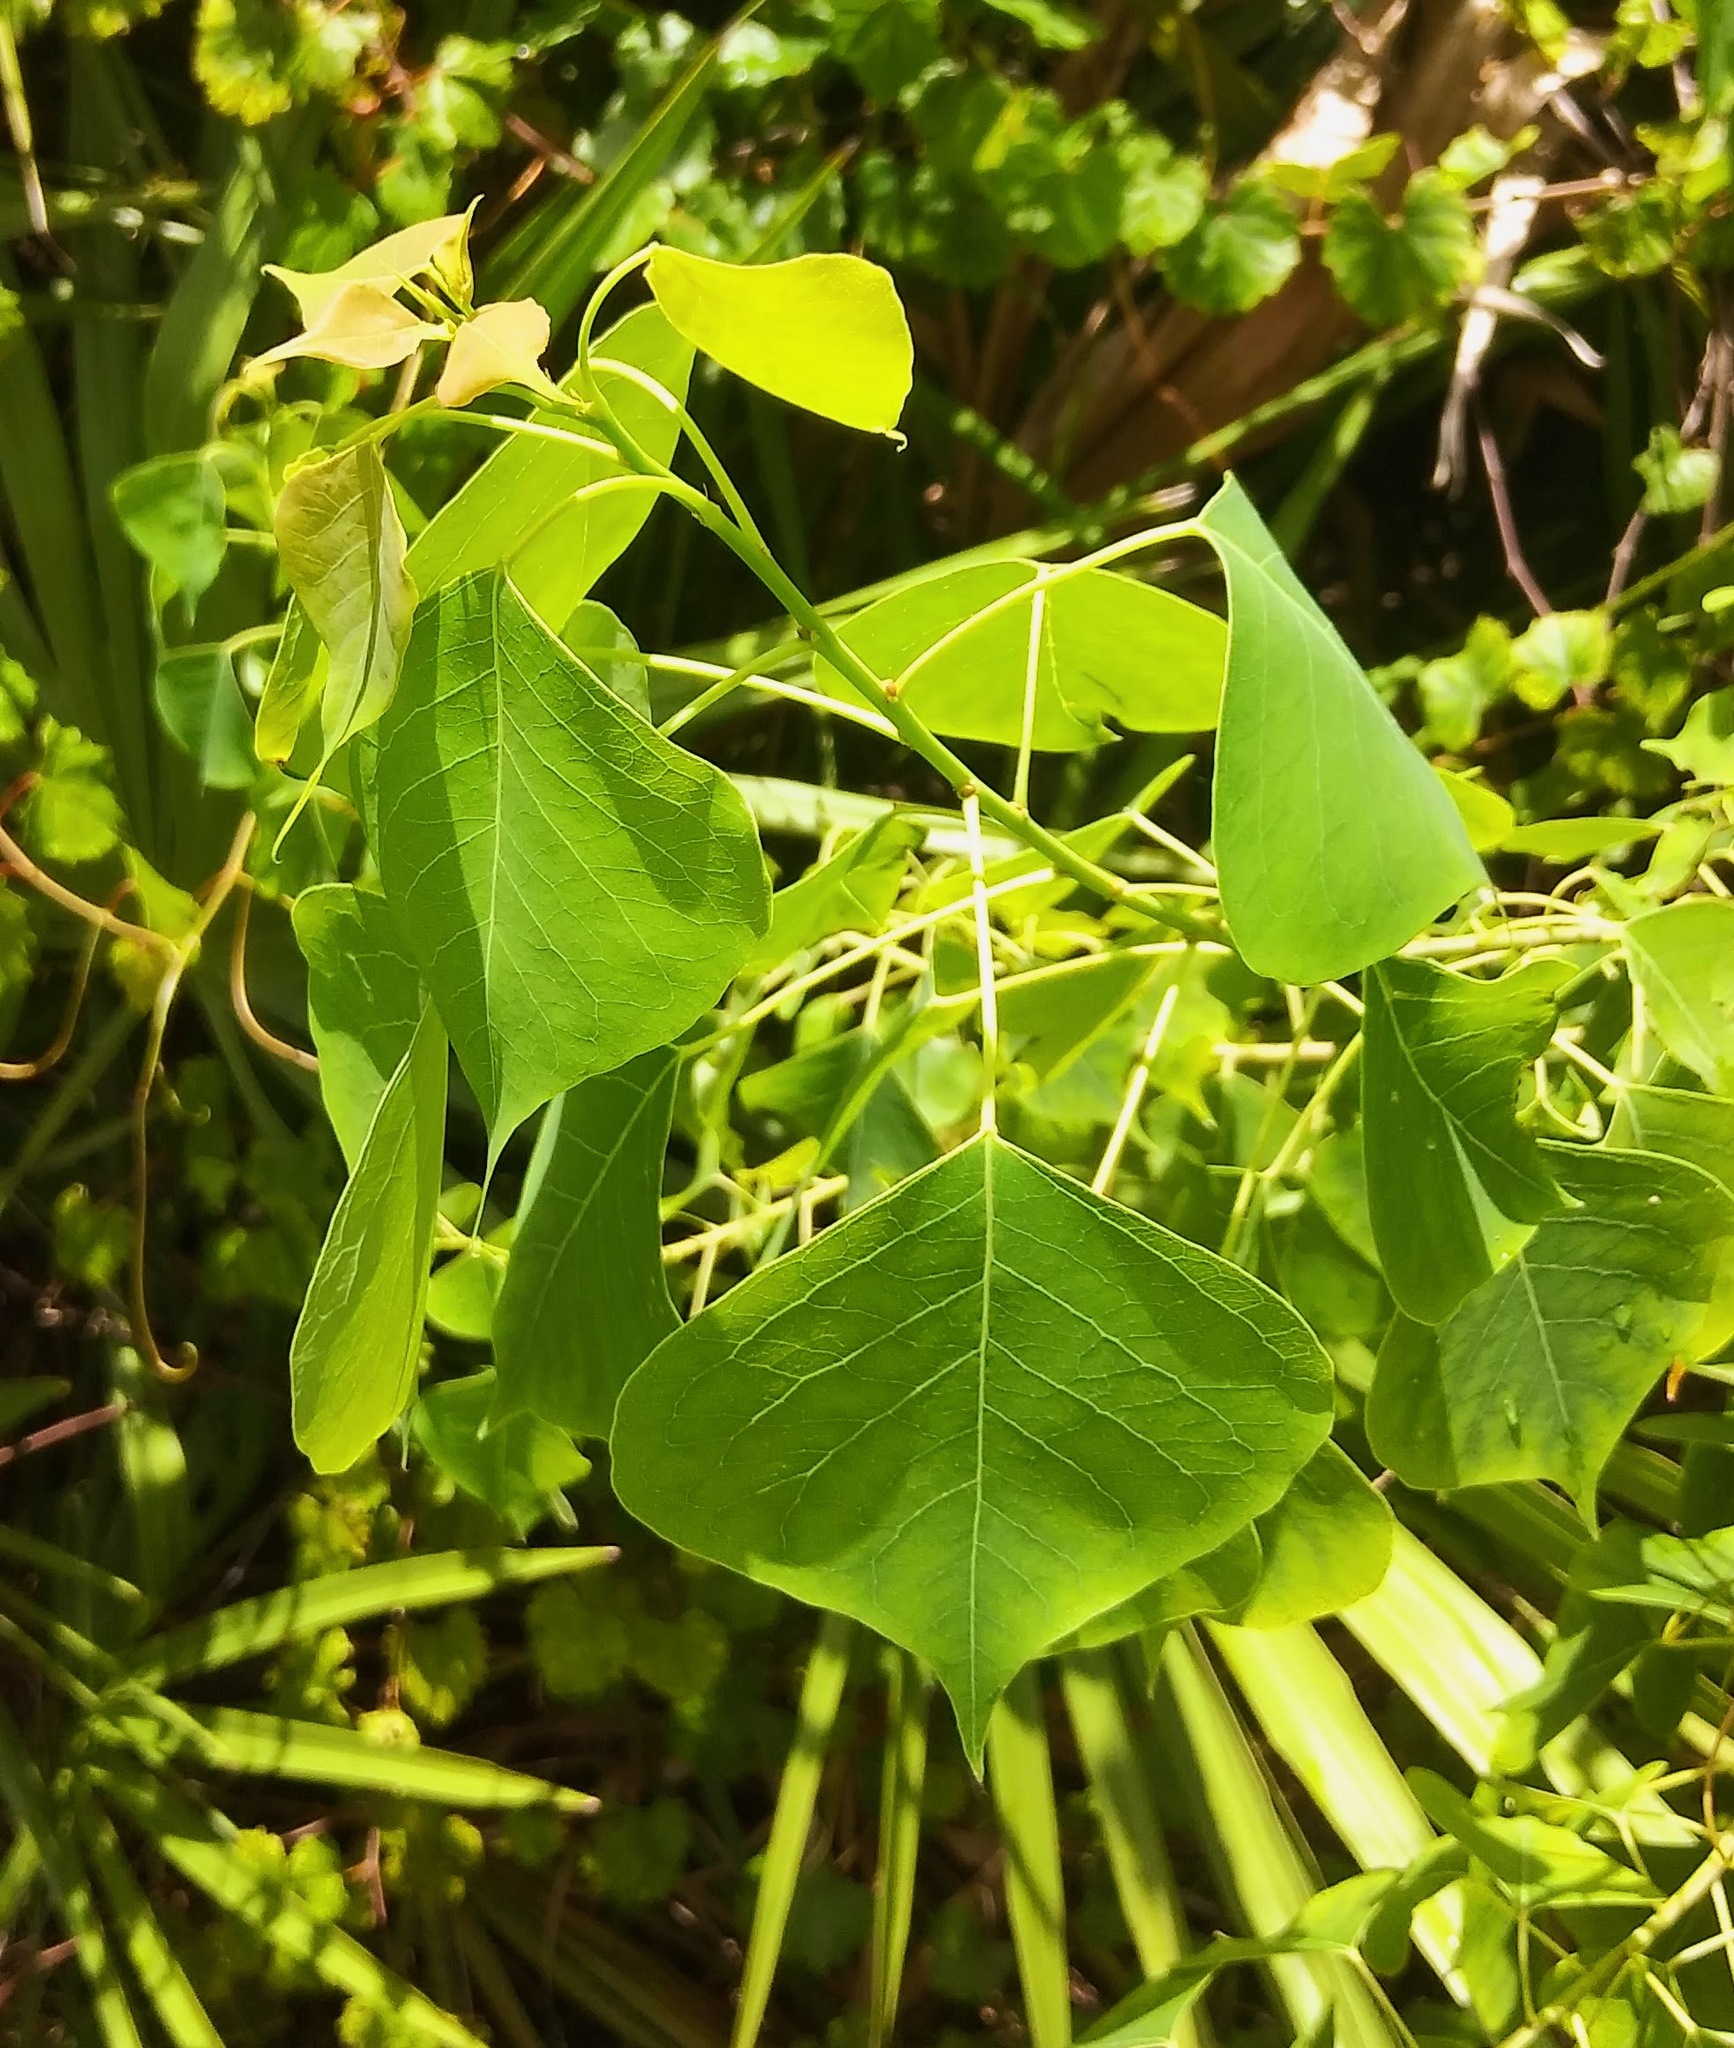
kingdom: Plantae
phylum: Tracheophyta
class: Magnoliopsida
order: Malpighiales
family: Euphorbiaceae
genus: Triadica
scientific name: Triadica sebifera
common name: Chinese tallow
